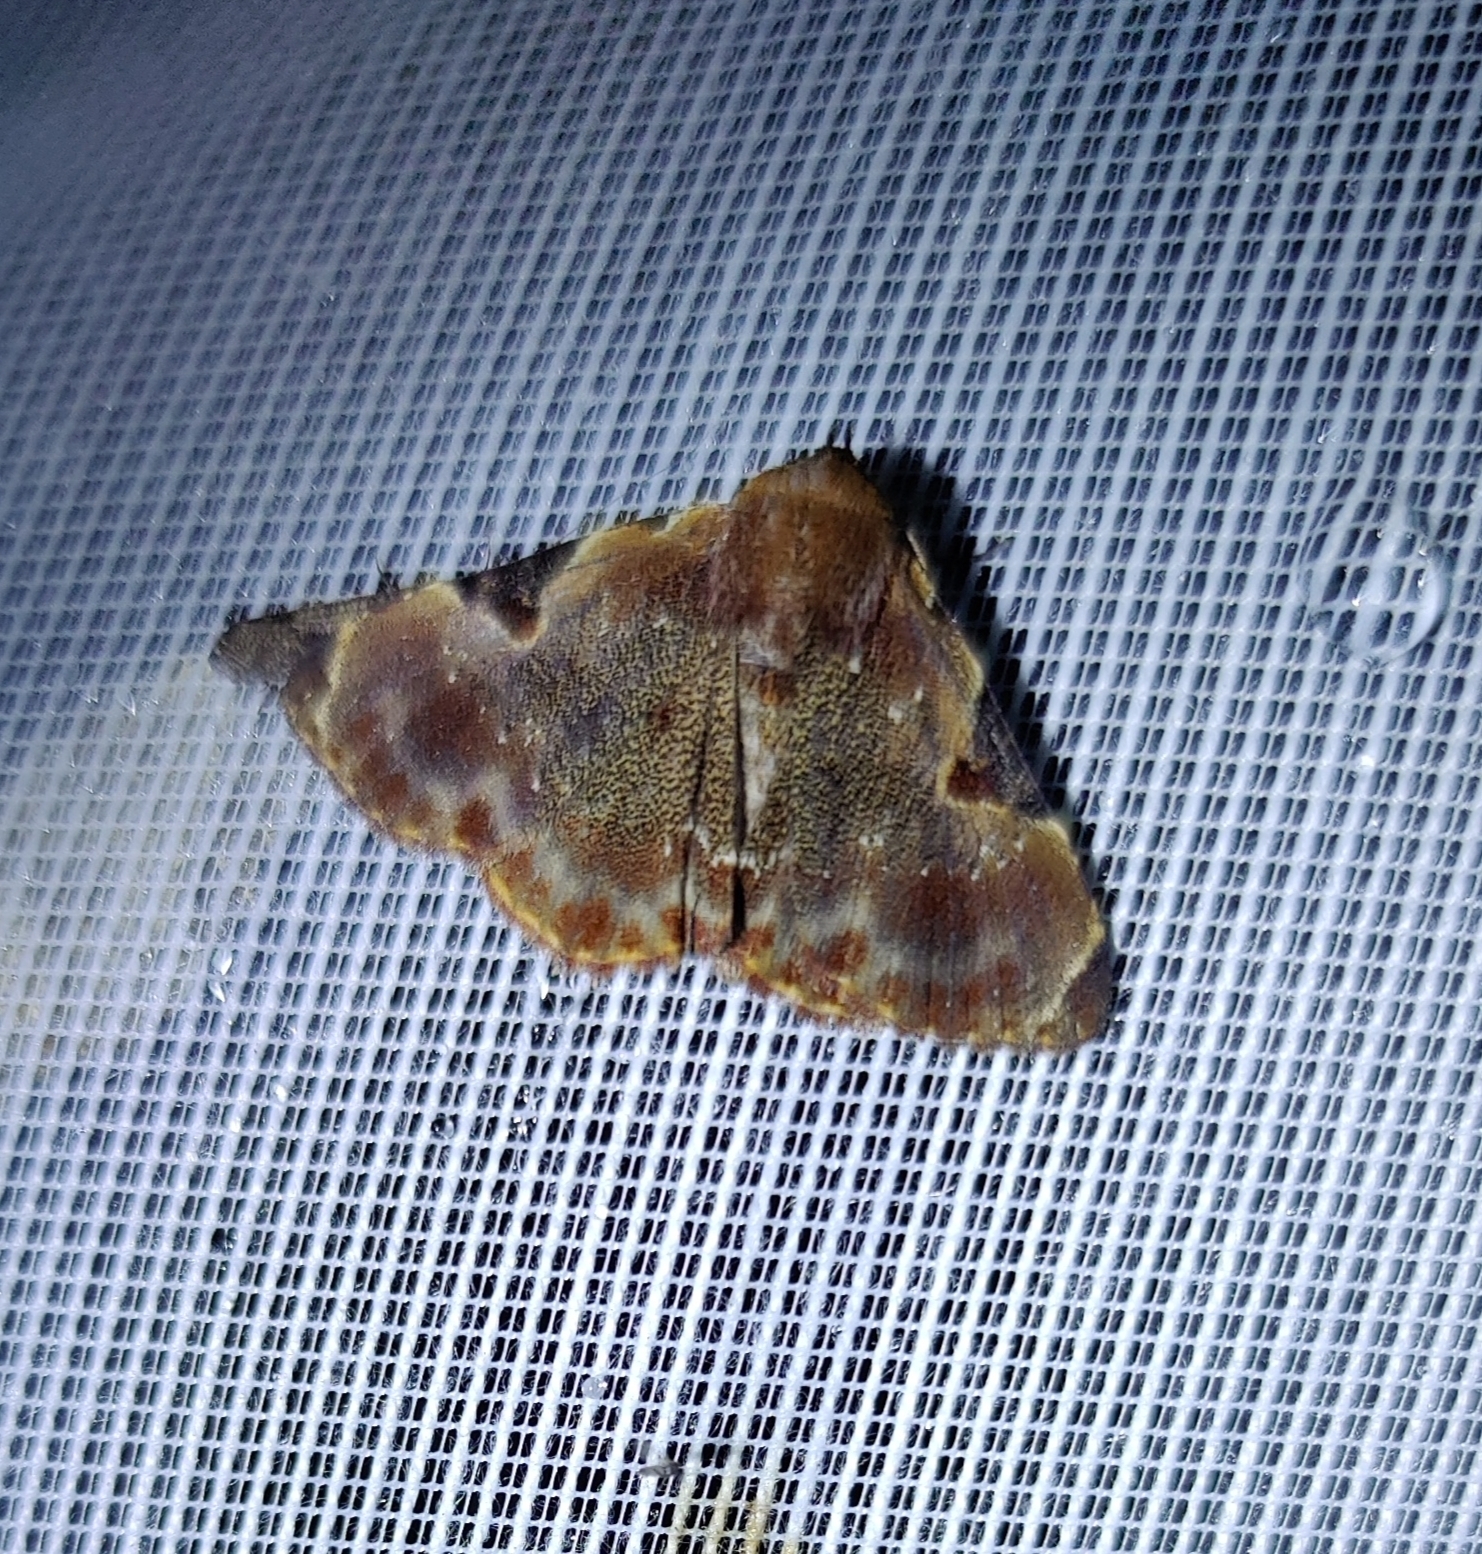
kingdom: Animalia
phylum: Arthropoda
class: Insecta
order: Lepidoptera
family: Erebidae
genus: Diomea
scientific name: Diomea eupsema
